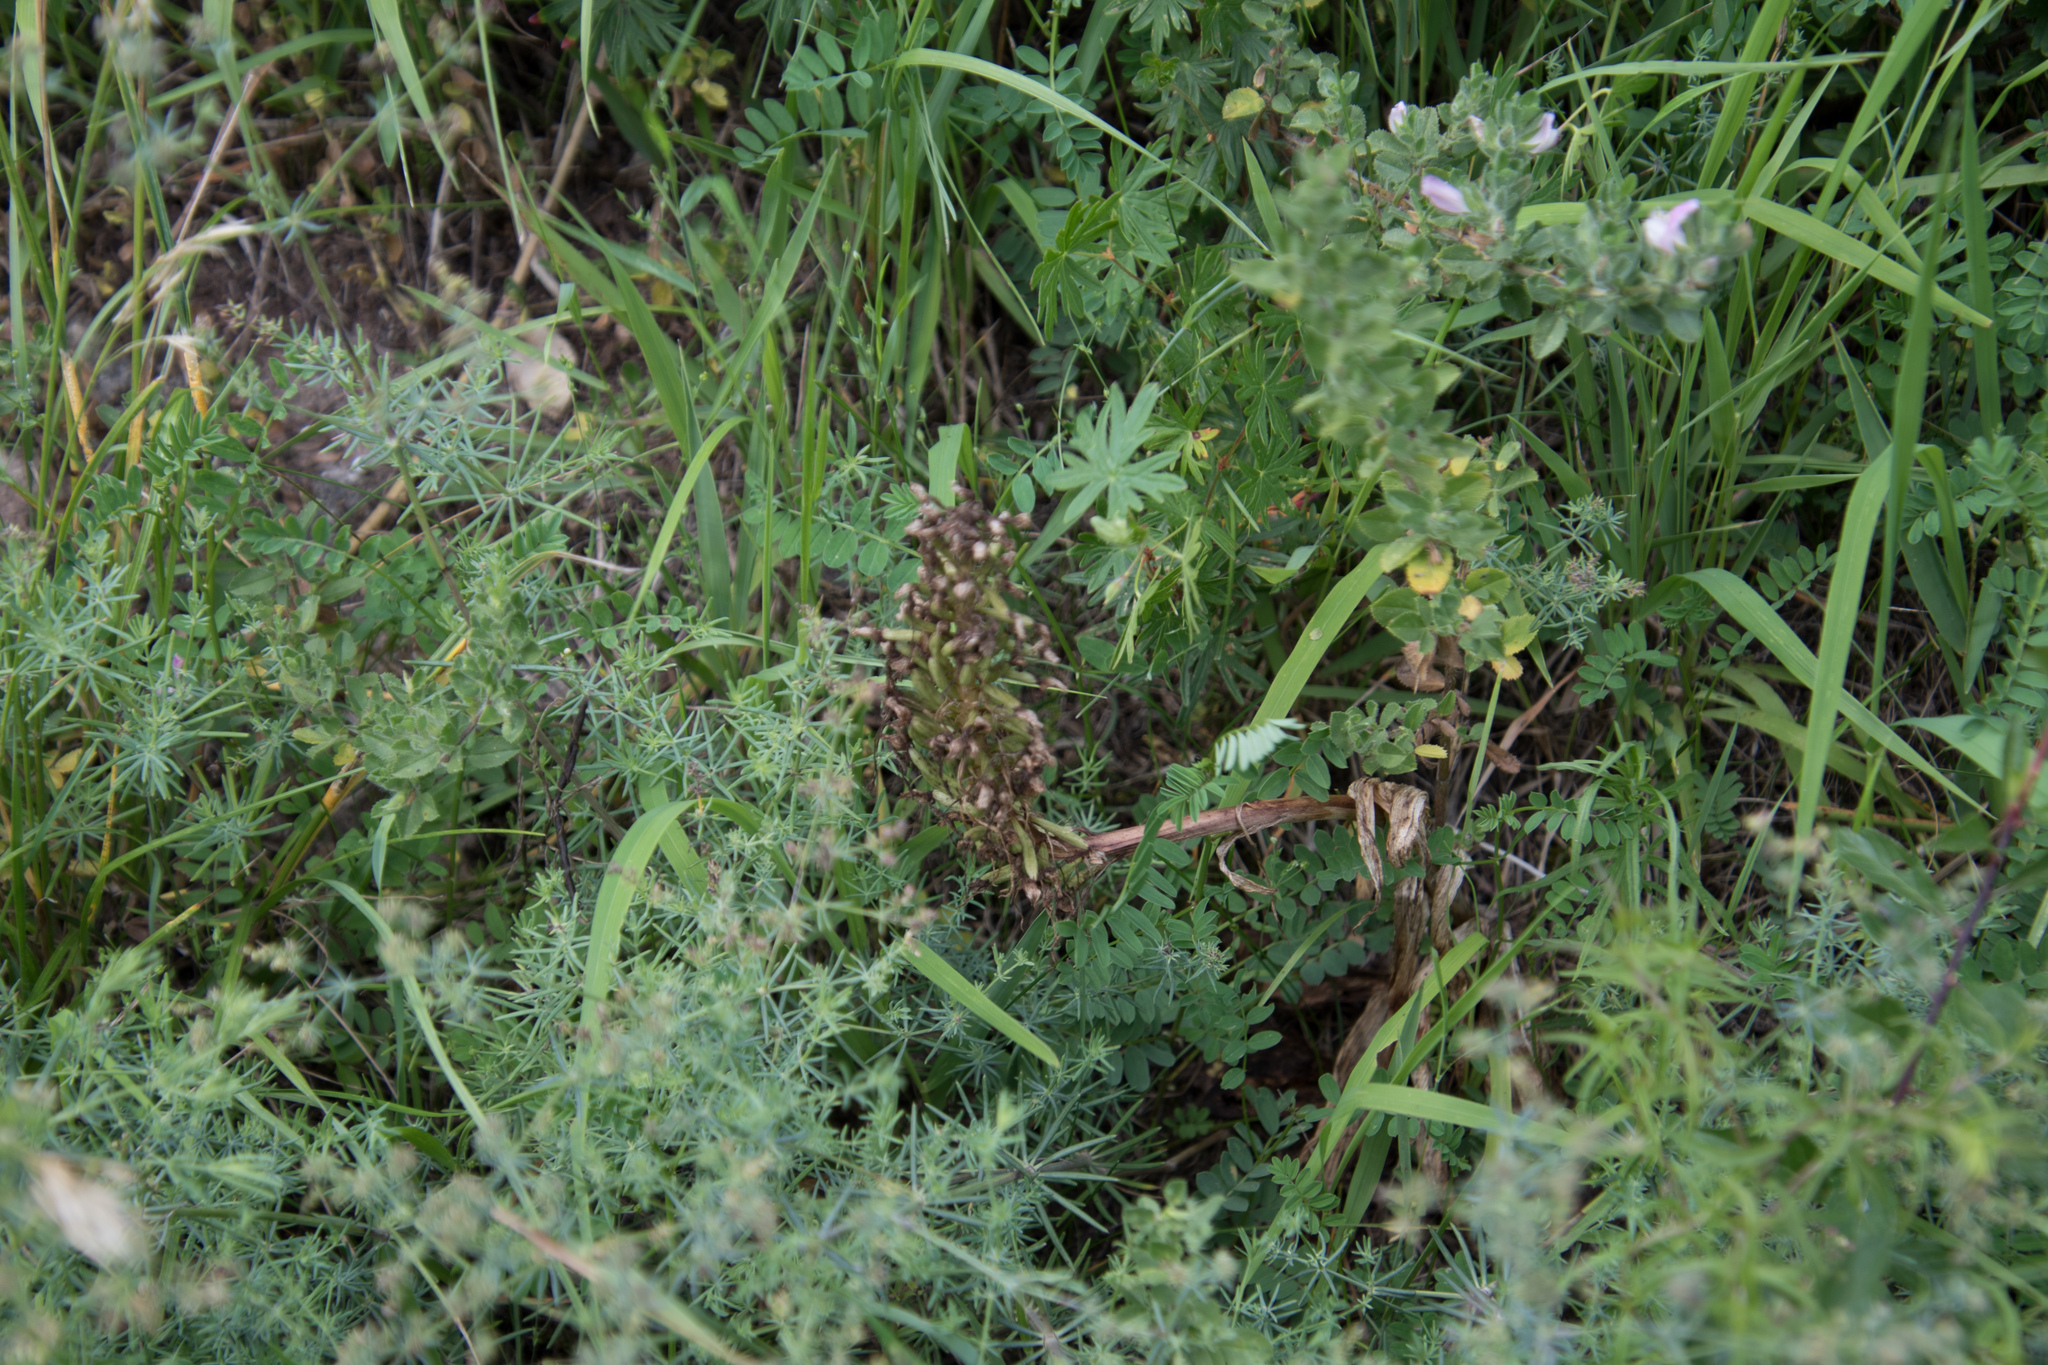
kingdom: Plantae
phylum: Tracheophyta
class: Liliopsida
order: Asparagales
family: Orchidaceae
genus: Himantoglossum
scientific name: Himantoglossum hircinum
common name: Lizard orchid
